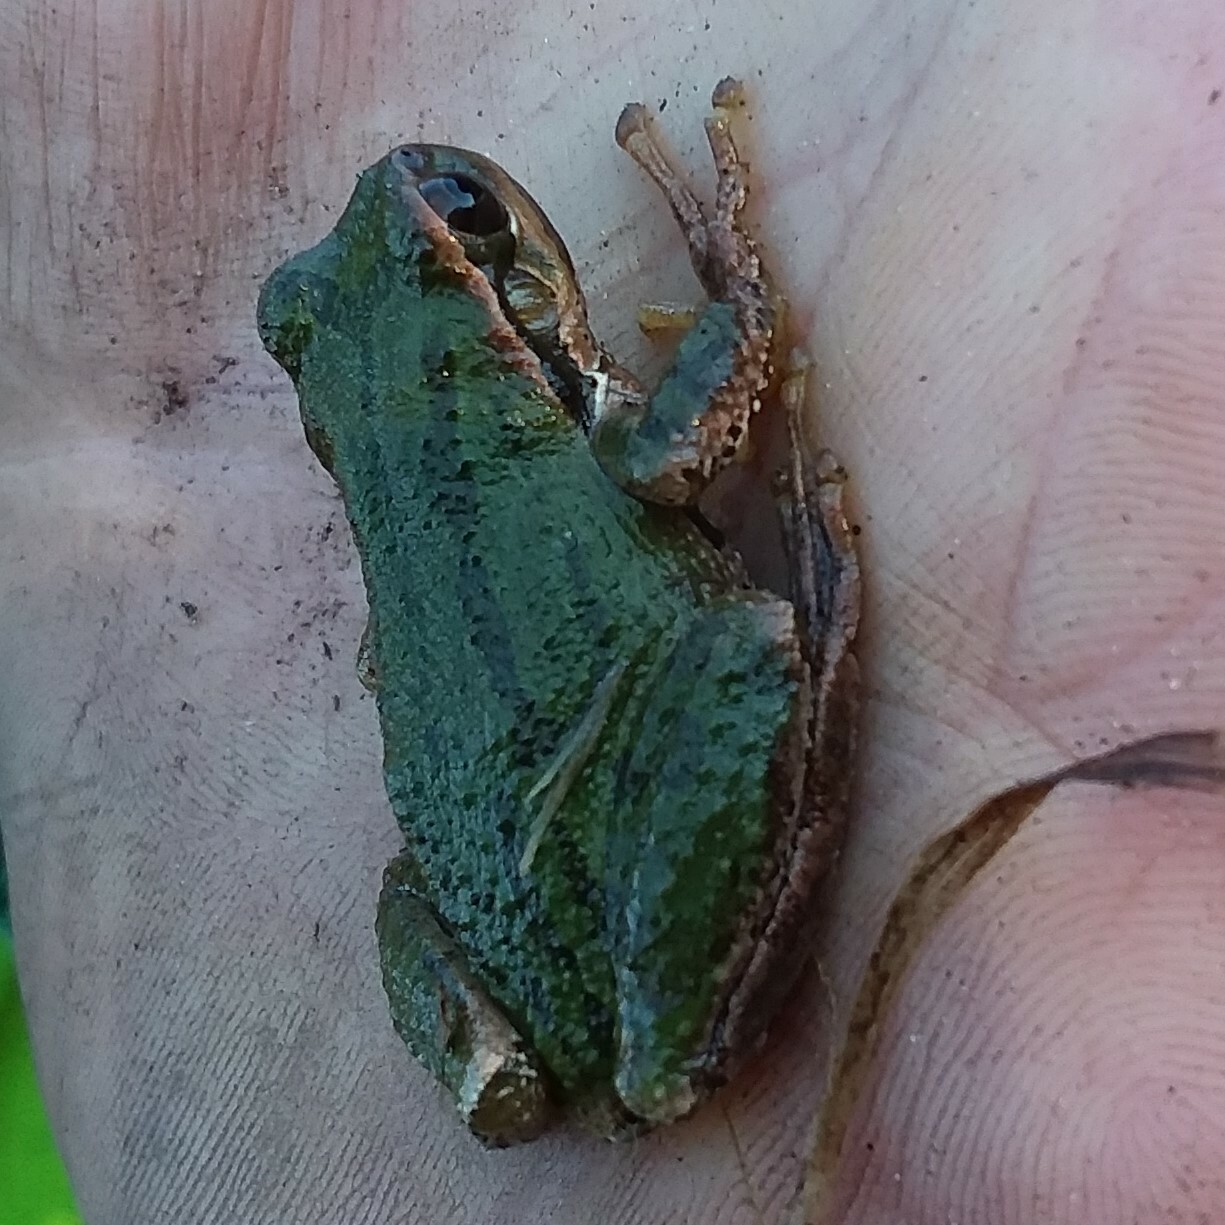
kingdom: Animalia
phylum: Chordata
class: Amphibia
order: Anura
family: Hylidae
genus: Pseudacris
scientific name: Pseudacris regilla
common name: Pacific chorus frog
